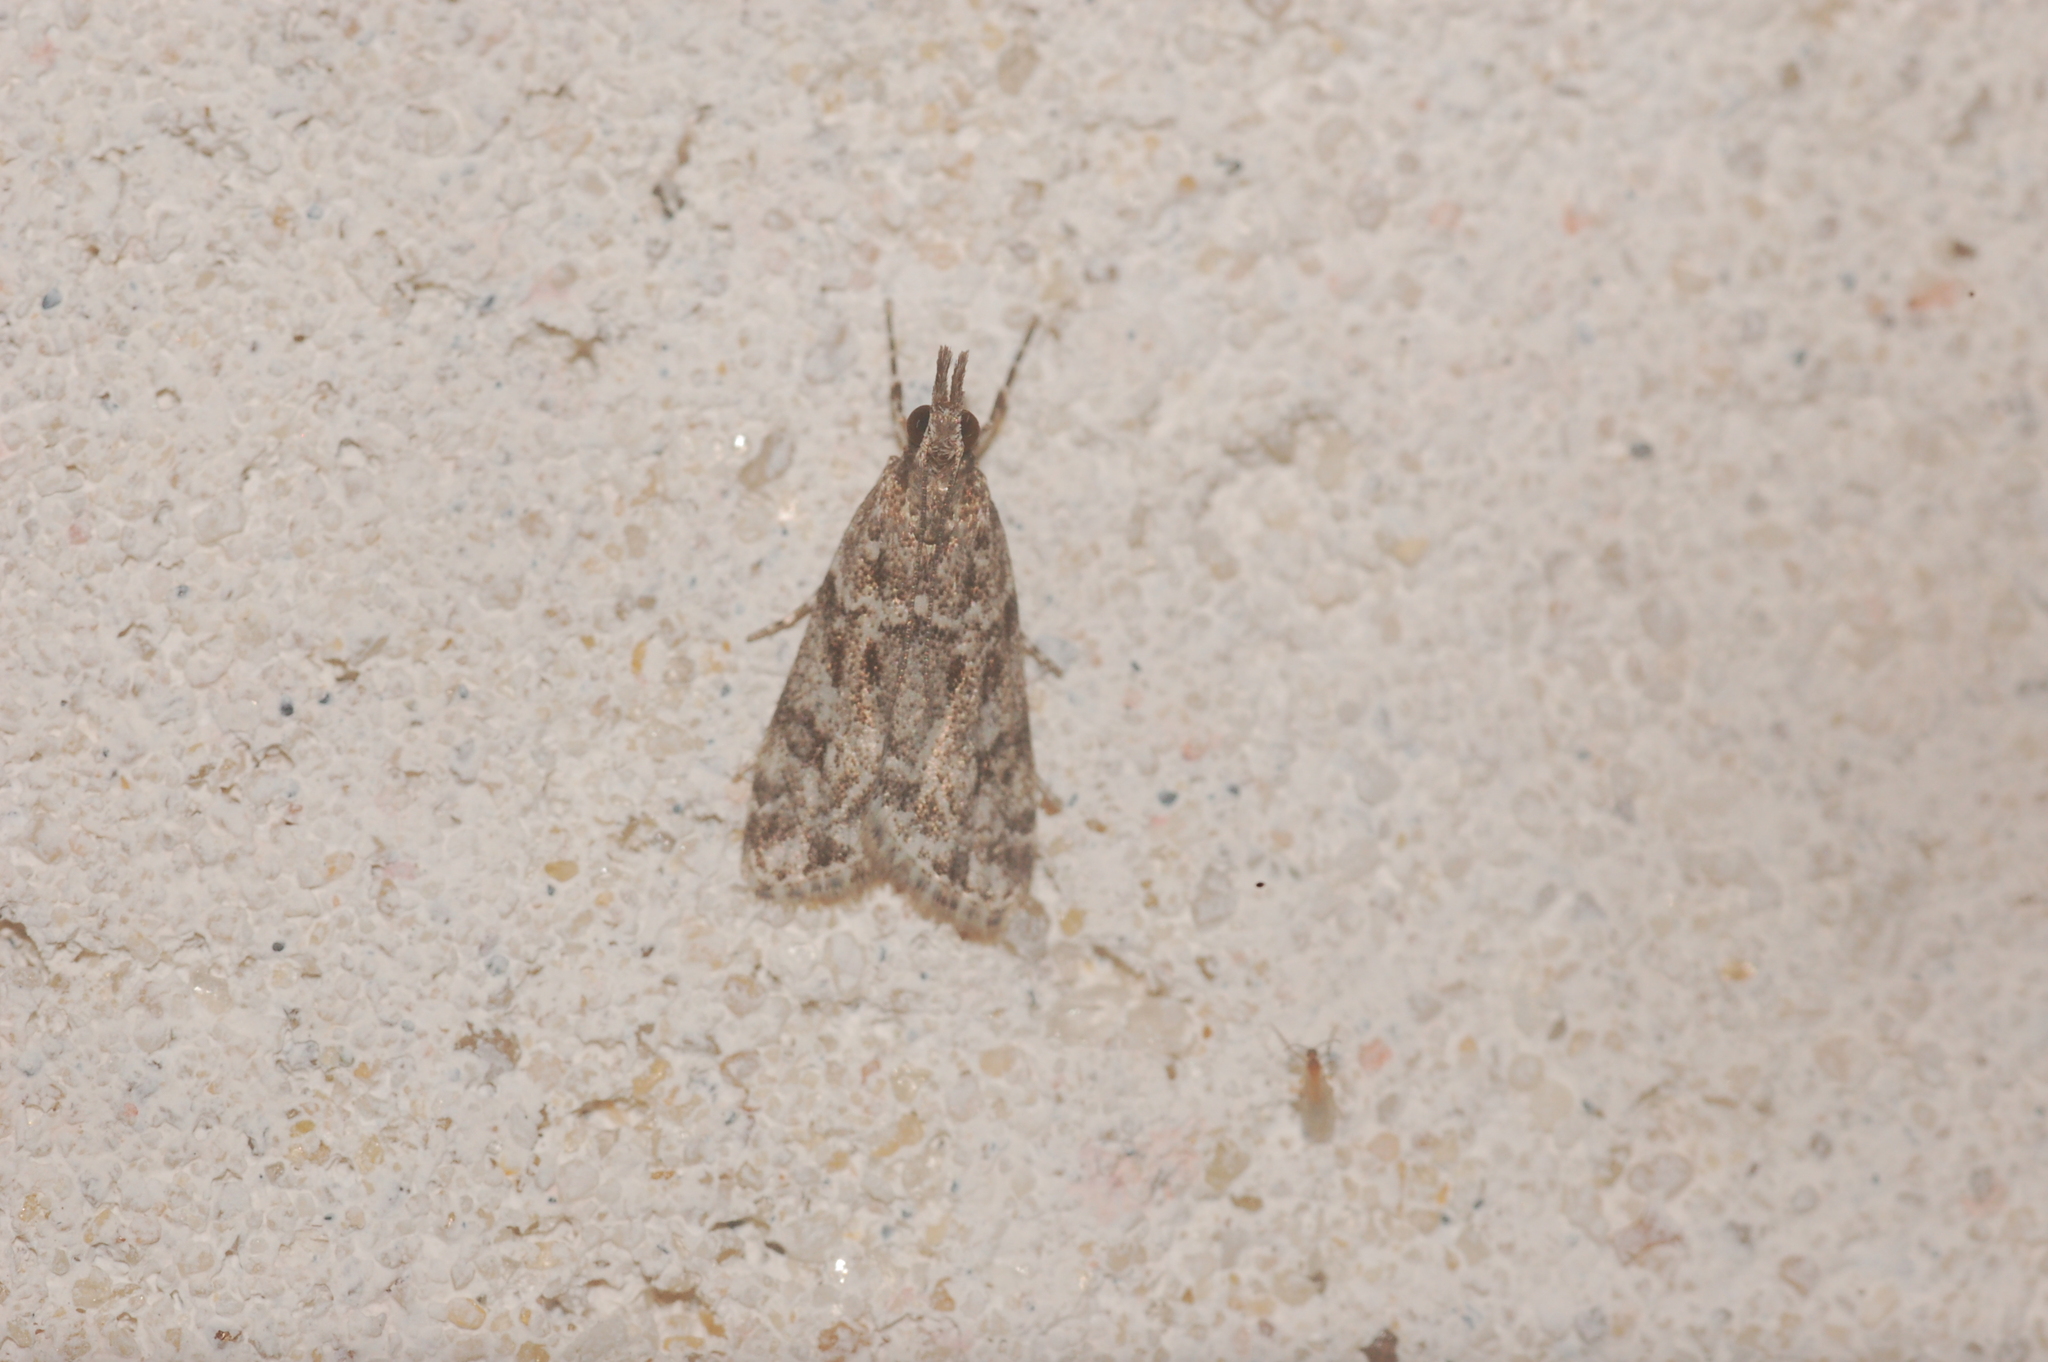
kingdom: Animalia
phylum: Arthropoda
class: Insecta
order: Lepidoptera
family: Crambidae
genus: Eudonia
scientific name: Eudonia heterosalis
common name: Mcdunnough's eudonia
